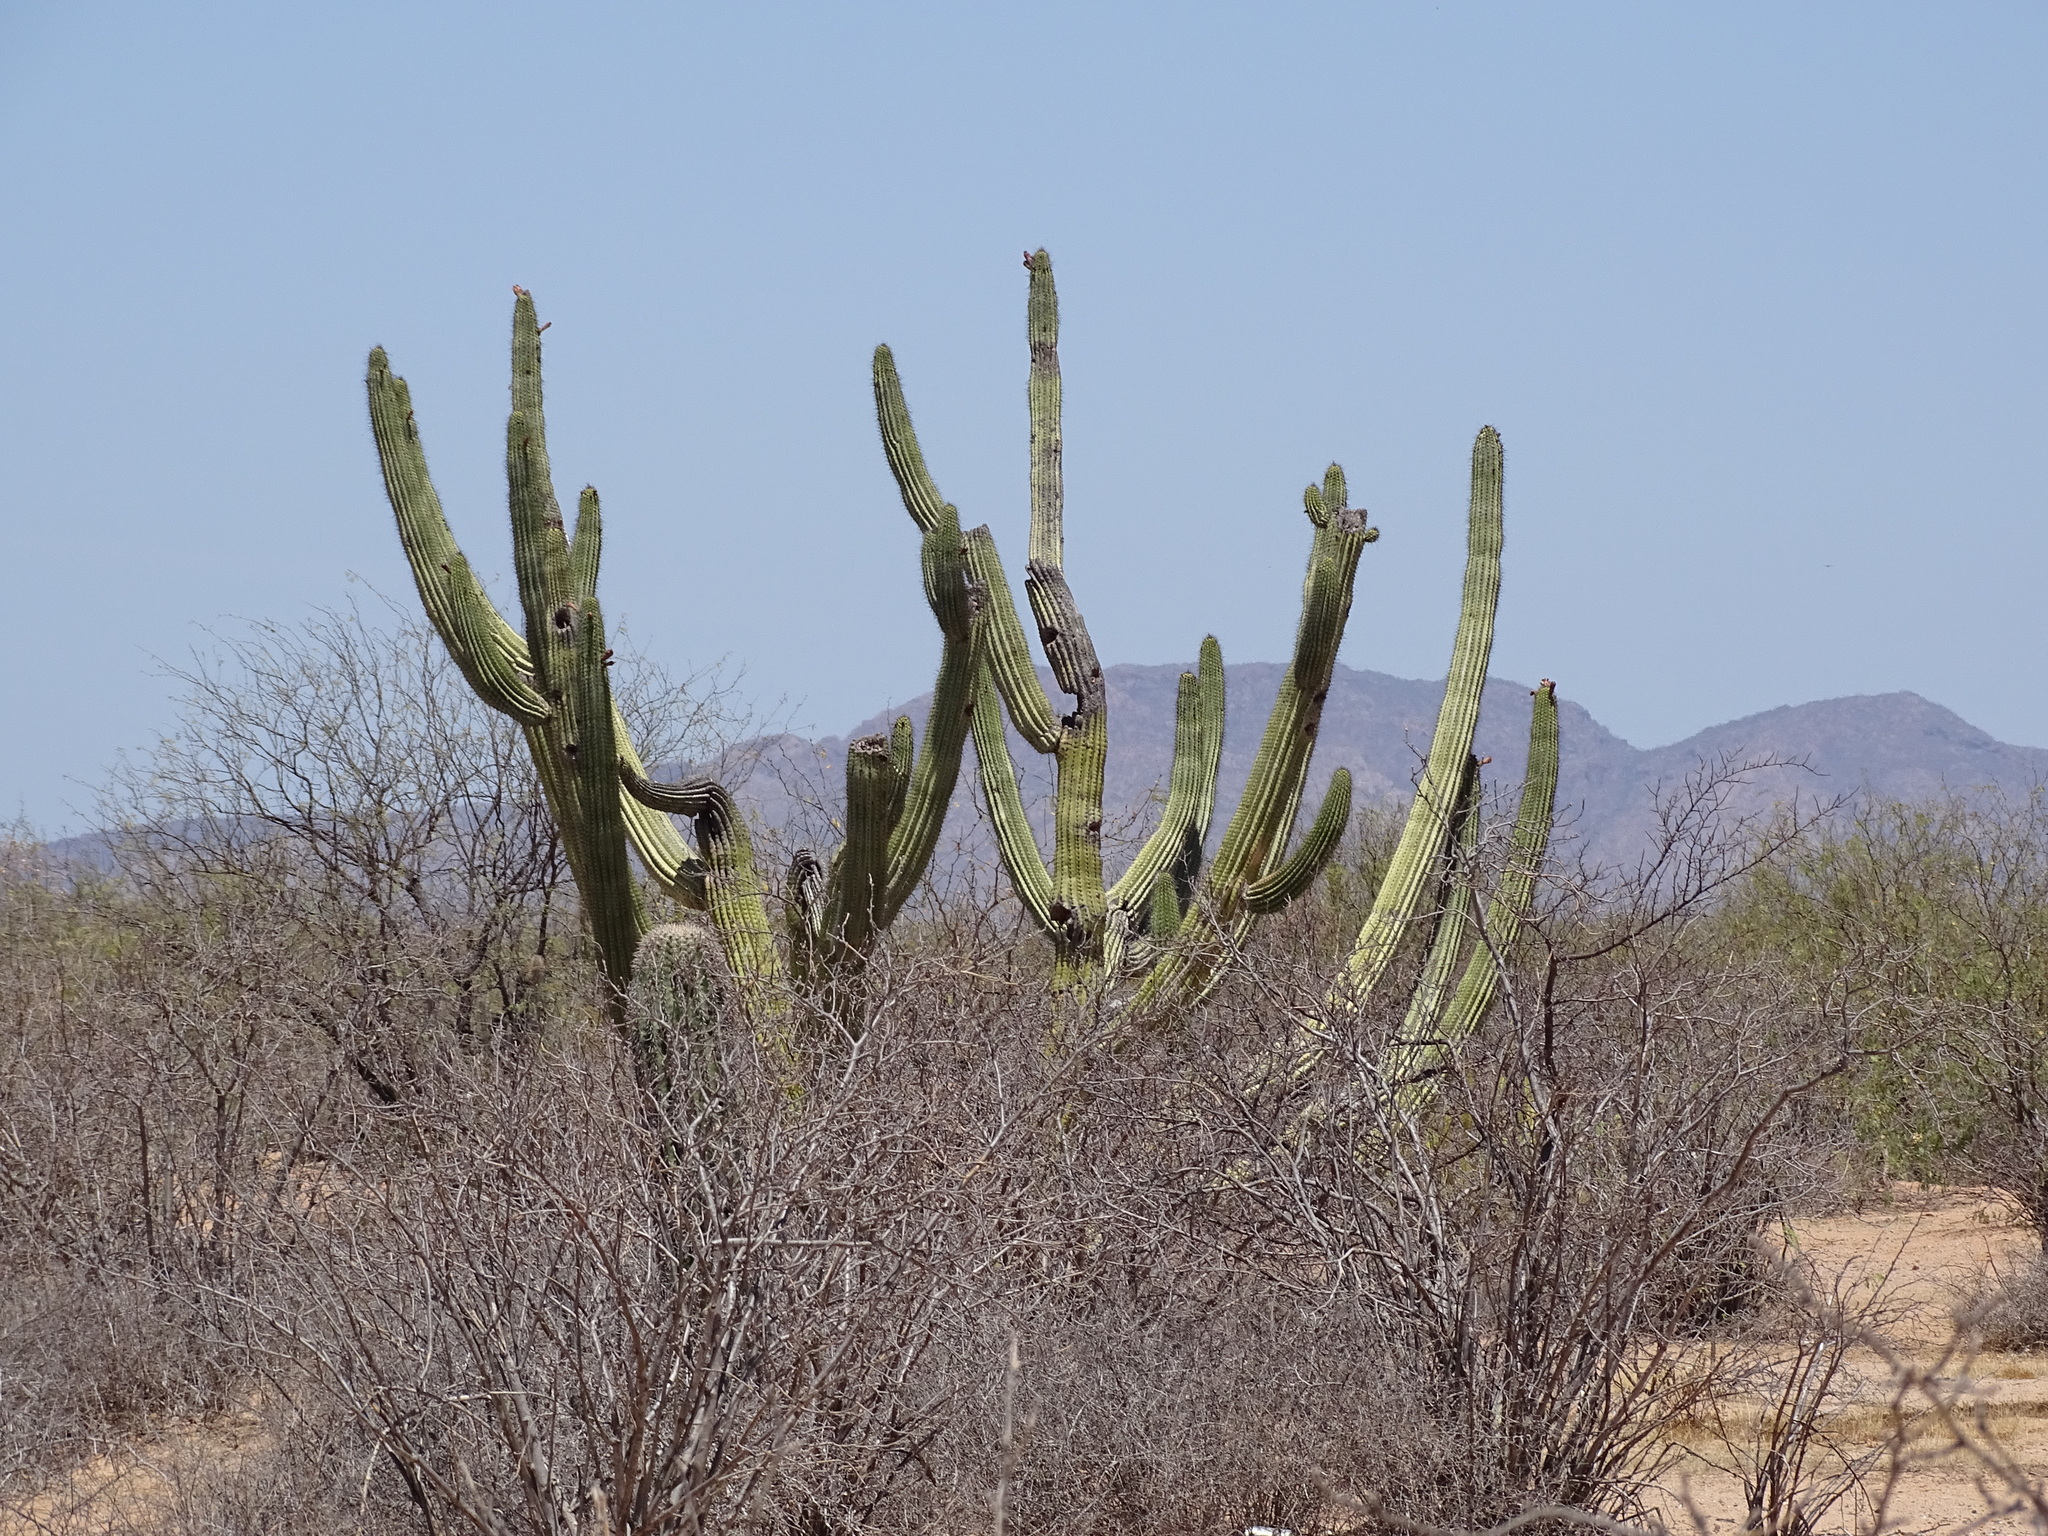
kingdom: Plantae
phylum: Tracheophyta
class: Magnoliopsida
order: Caryophyllales
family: Cactaceae
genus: Stenocereus
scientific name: Stenocereus thurberi
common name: Organ pipe cactus
